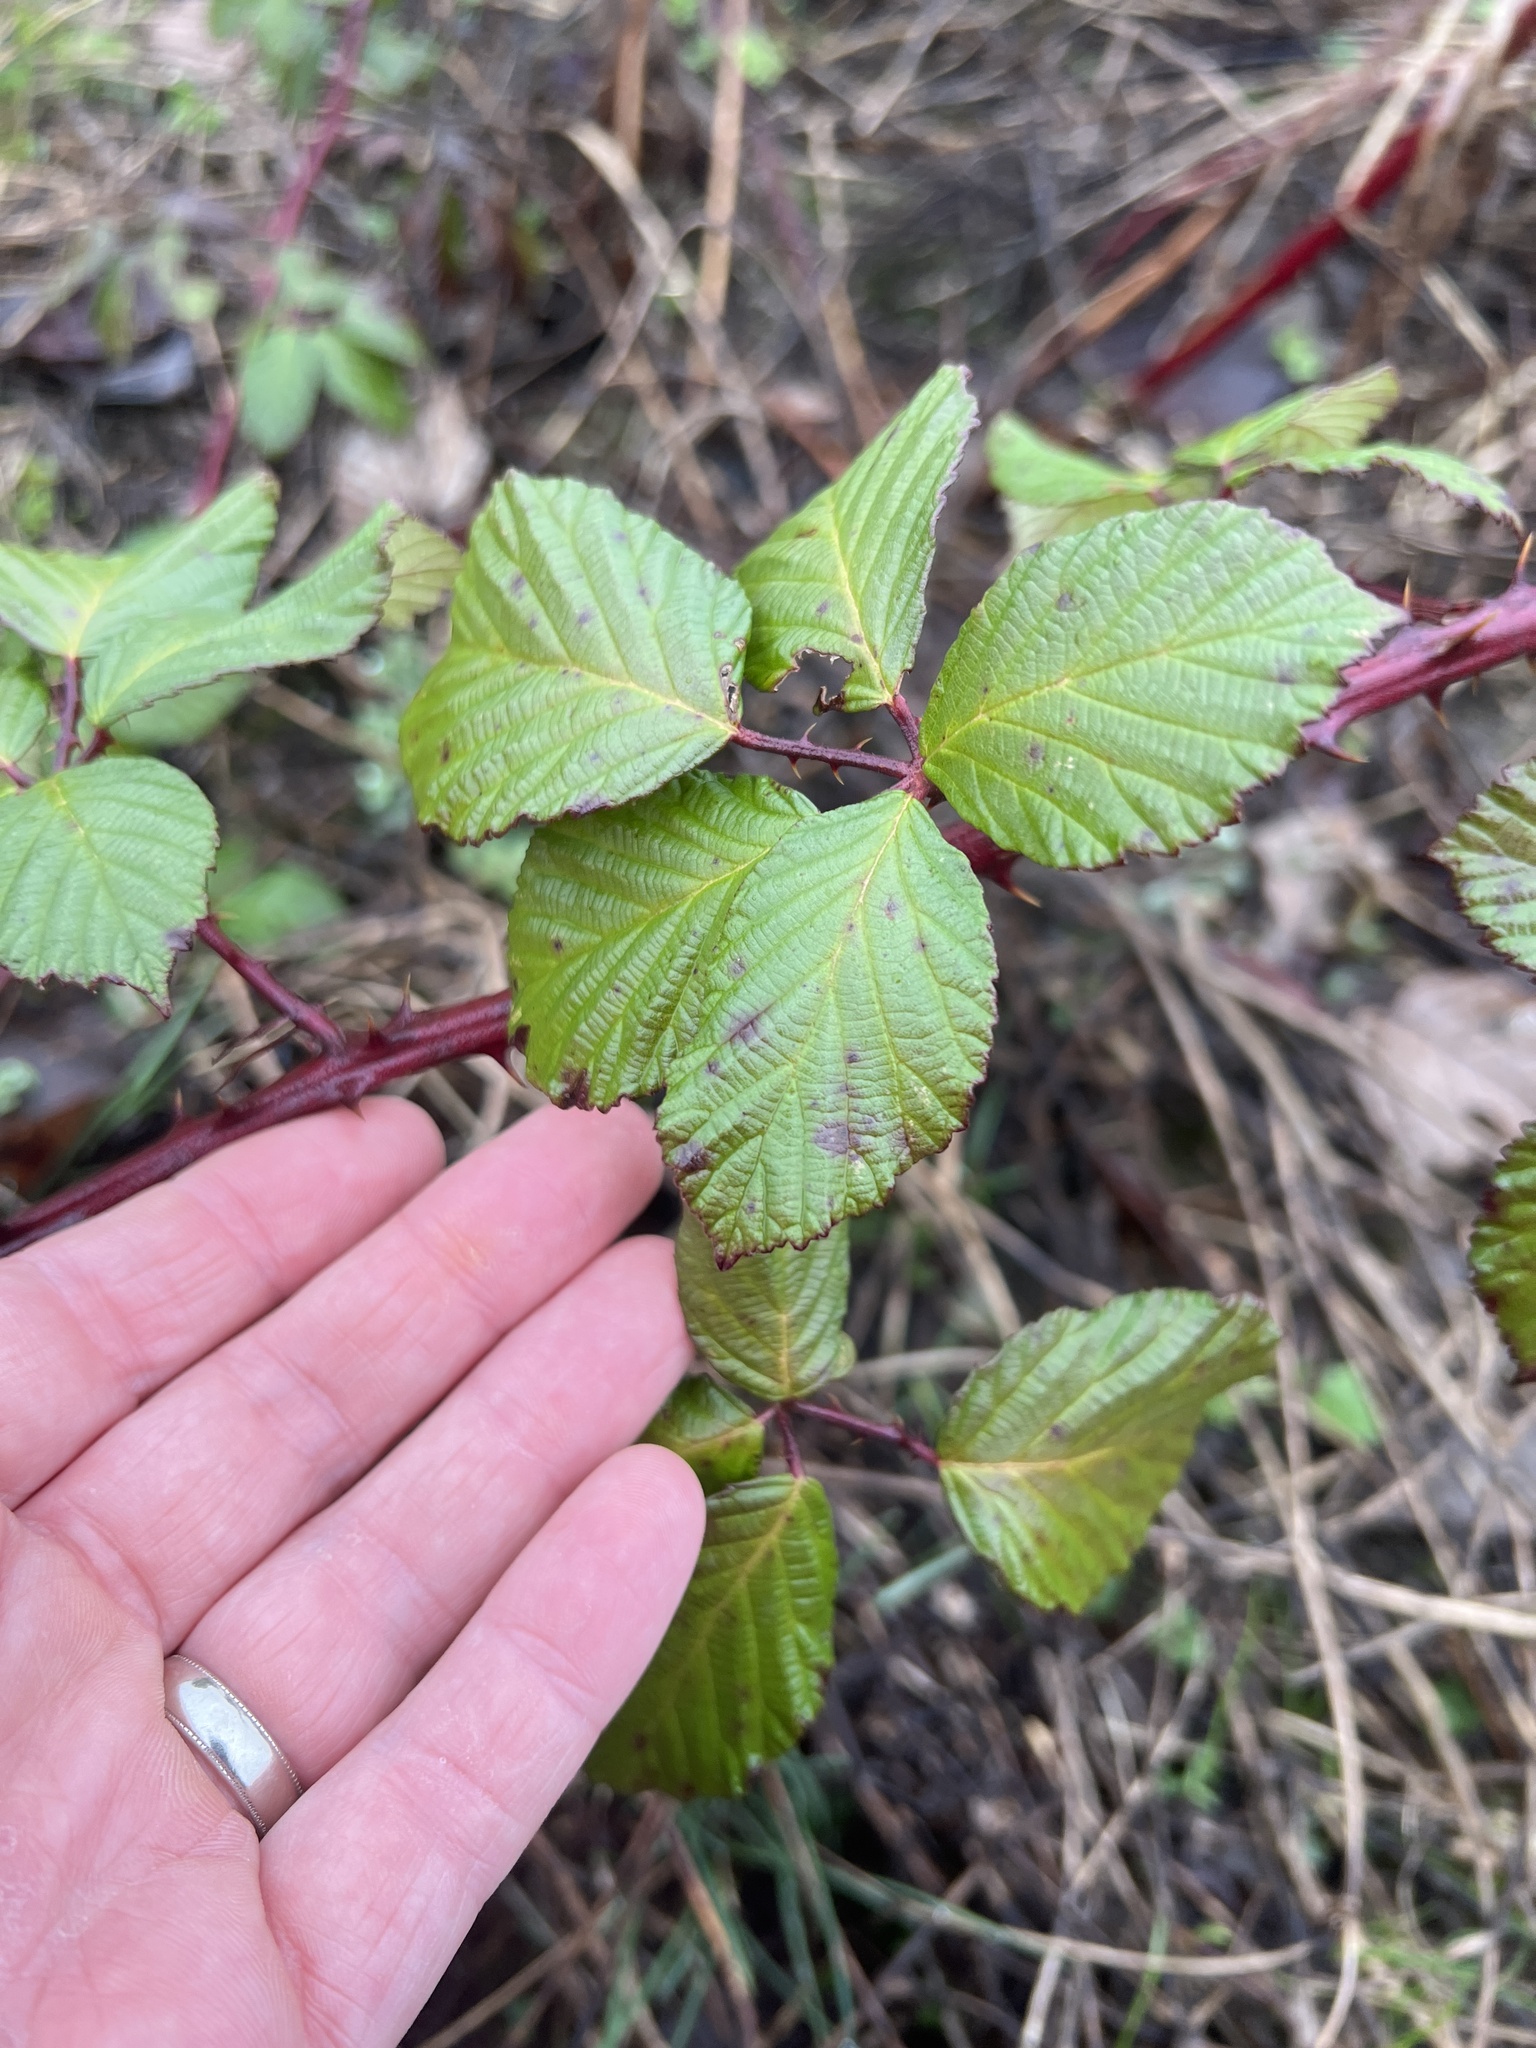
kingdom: Plantae
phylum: Tracheophyta
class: Magnoliopsida
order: Rosales
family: Rosaceae
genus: Rubus
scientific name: Rubus bifrons
